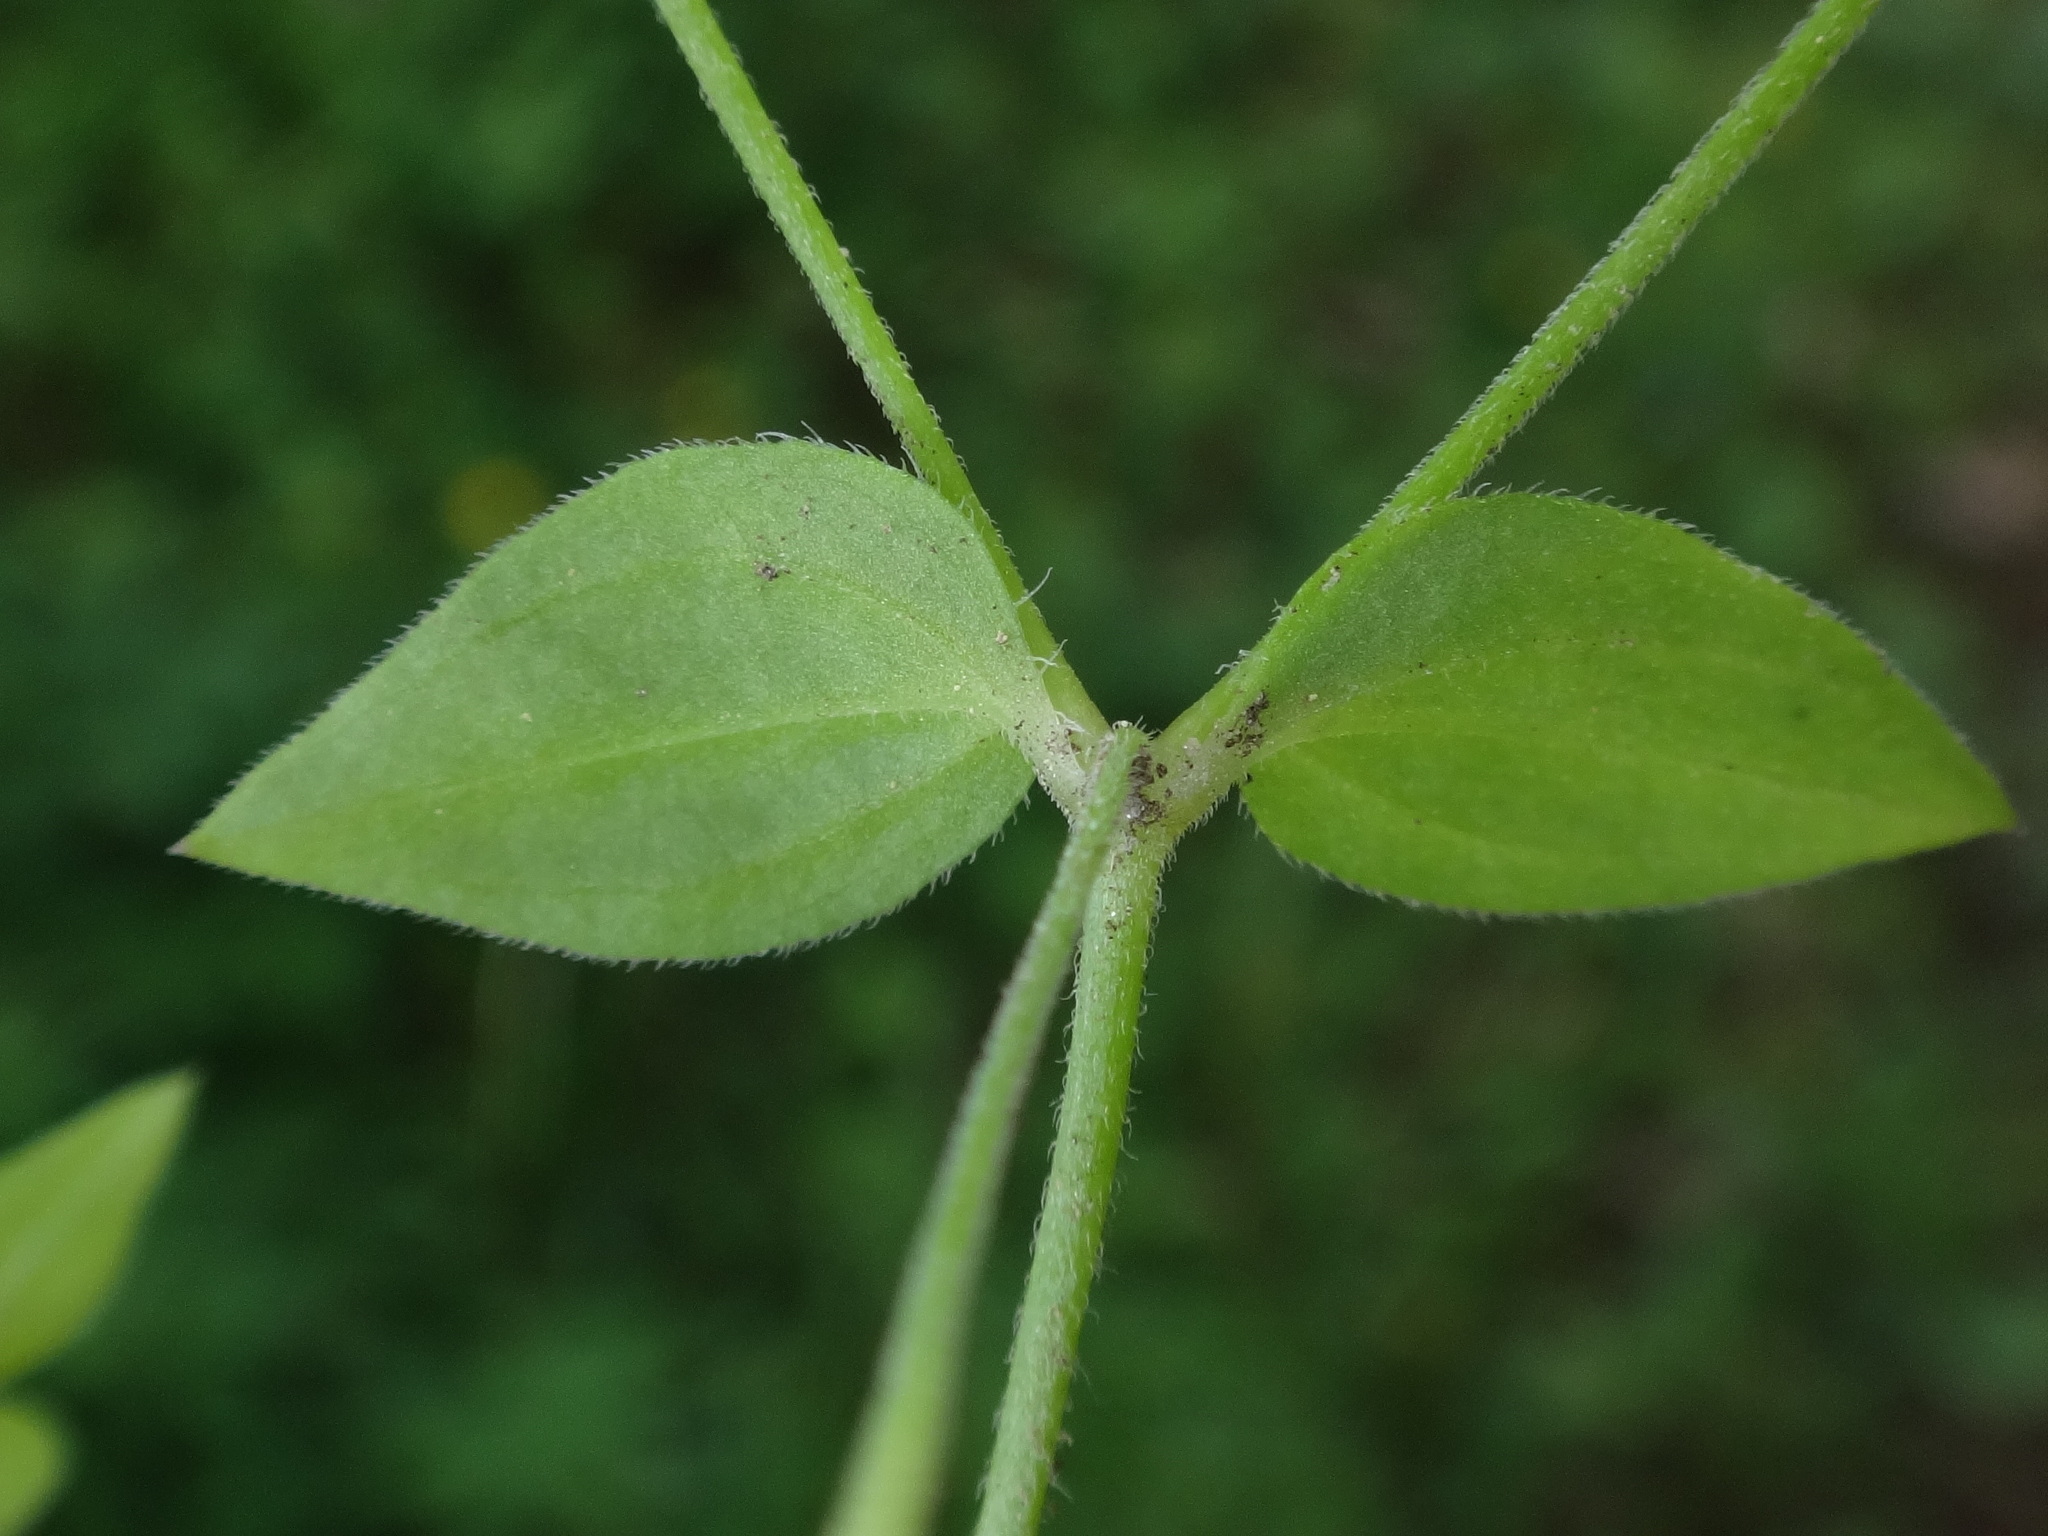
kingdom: Plantae
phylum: Tracheophyta
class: Magnoliopsida
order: Caryophyllales
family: Caryophyllaceae
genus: Moehringia
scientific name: Moehringia trinervia
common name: Three-nerved sandwort
